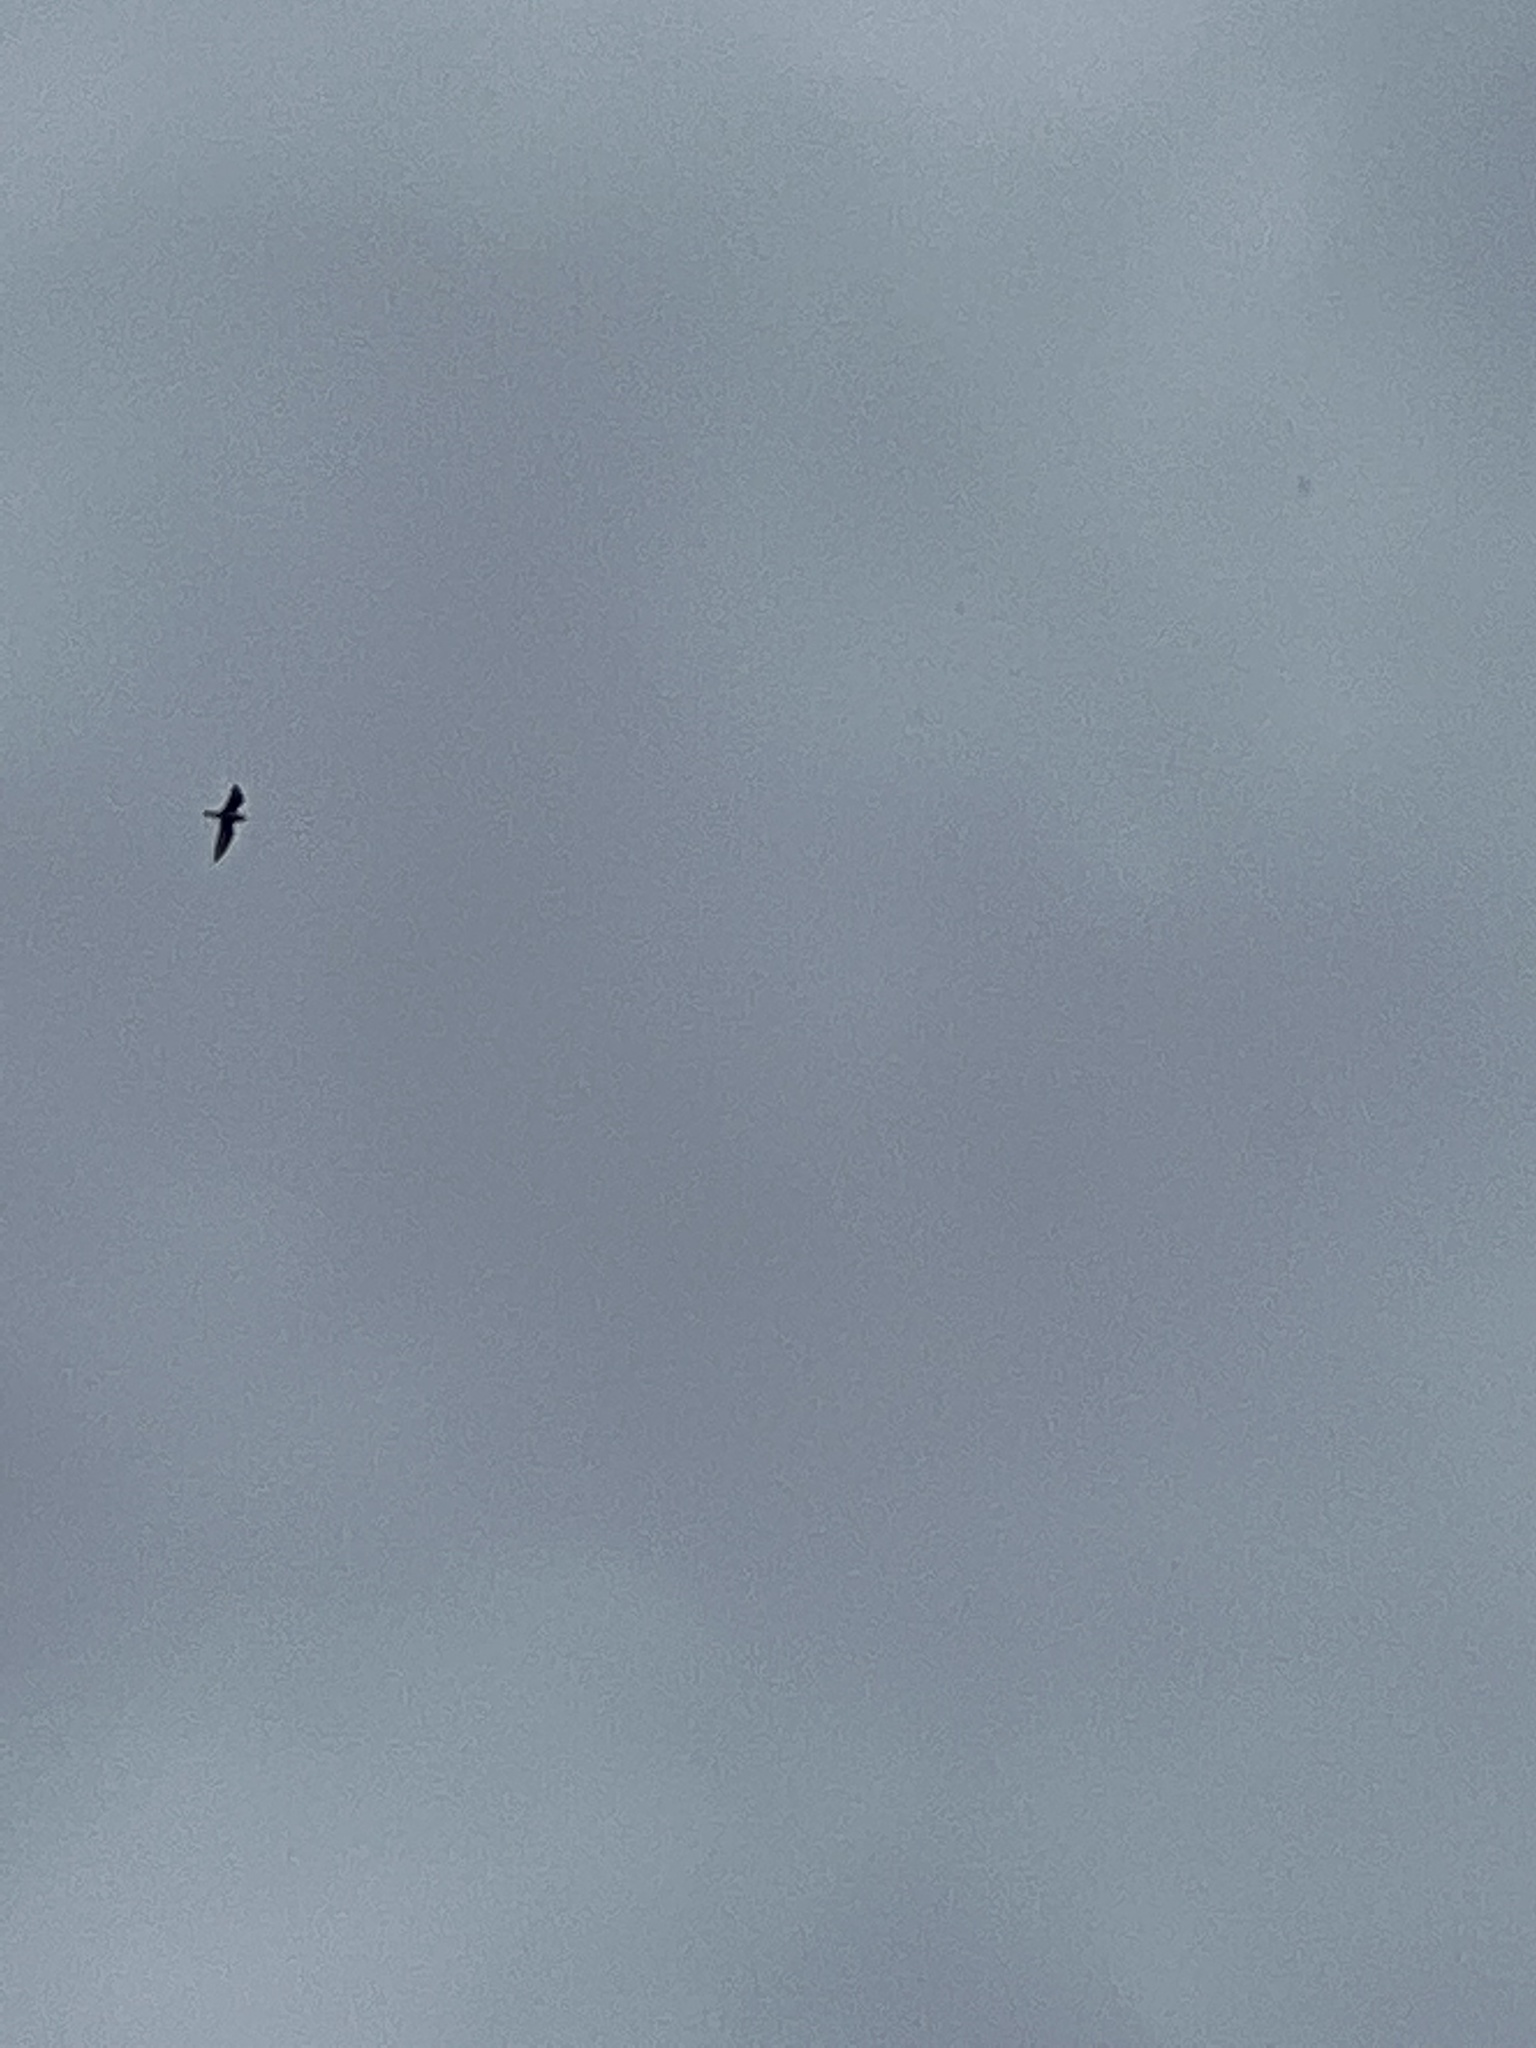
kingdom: Animalia
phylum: Chordata
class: Aves
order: Charadriiformes
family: Charadriidae
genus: Charadrius
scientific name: Charadrius vociferus
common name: Killdeer
